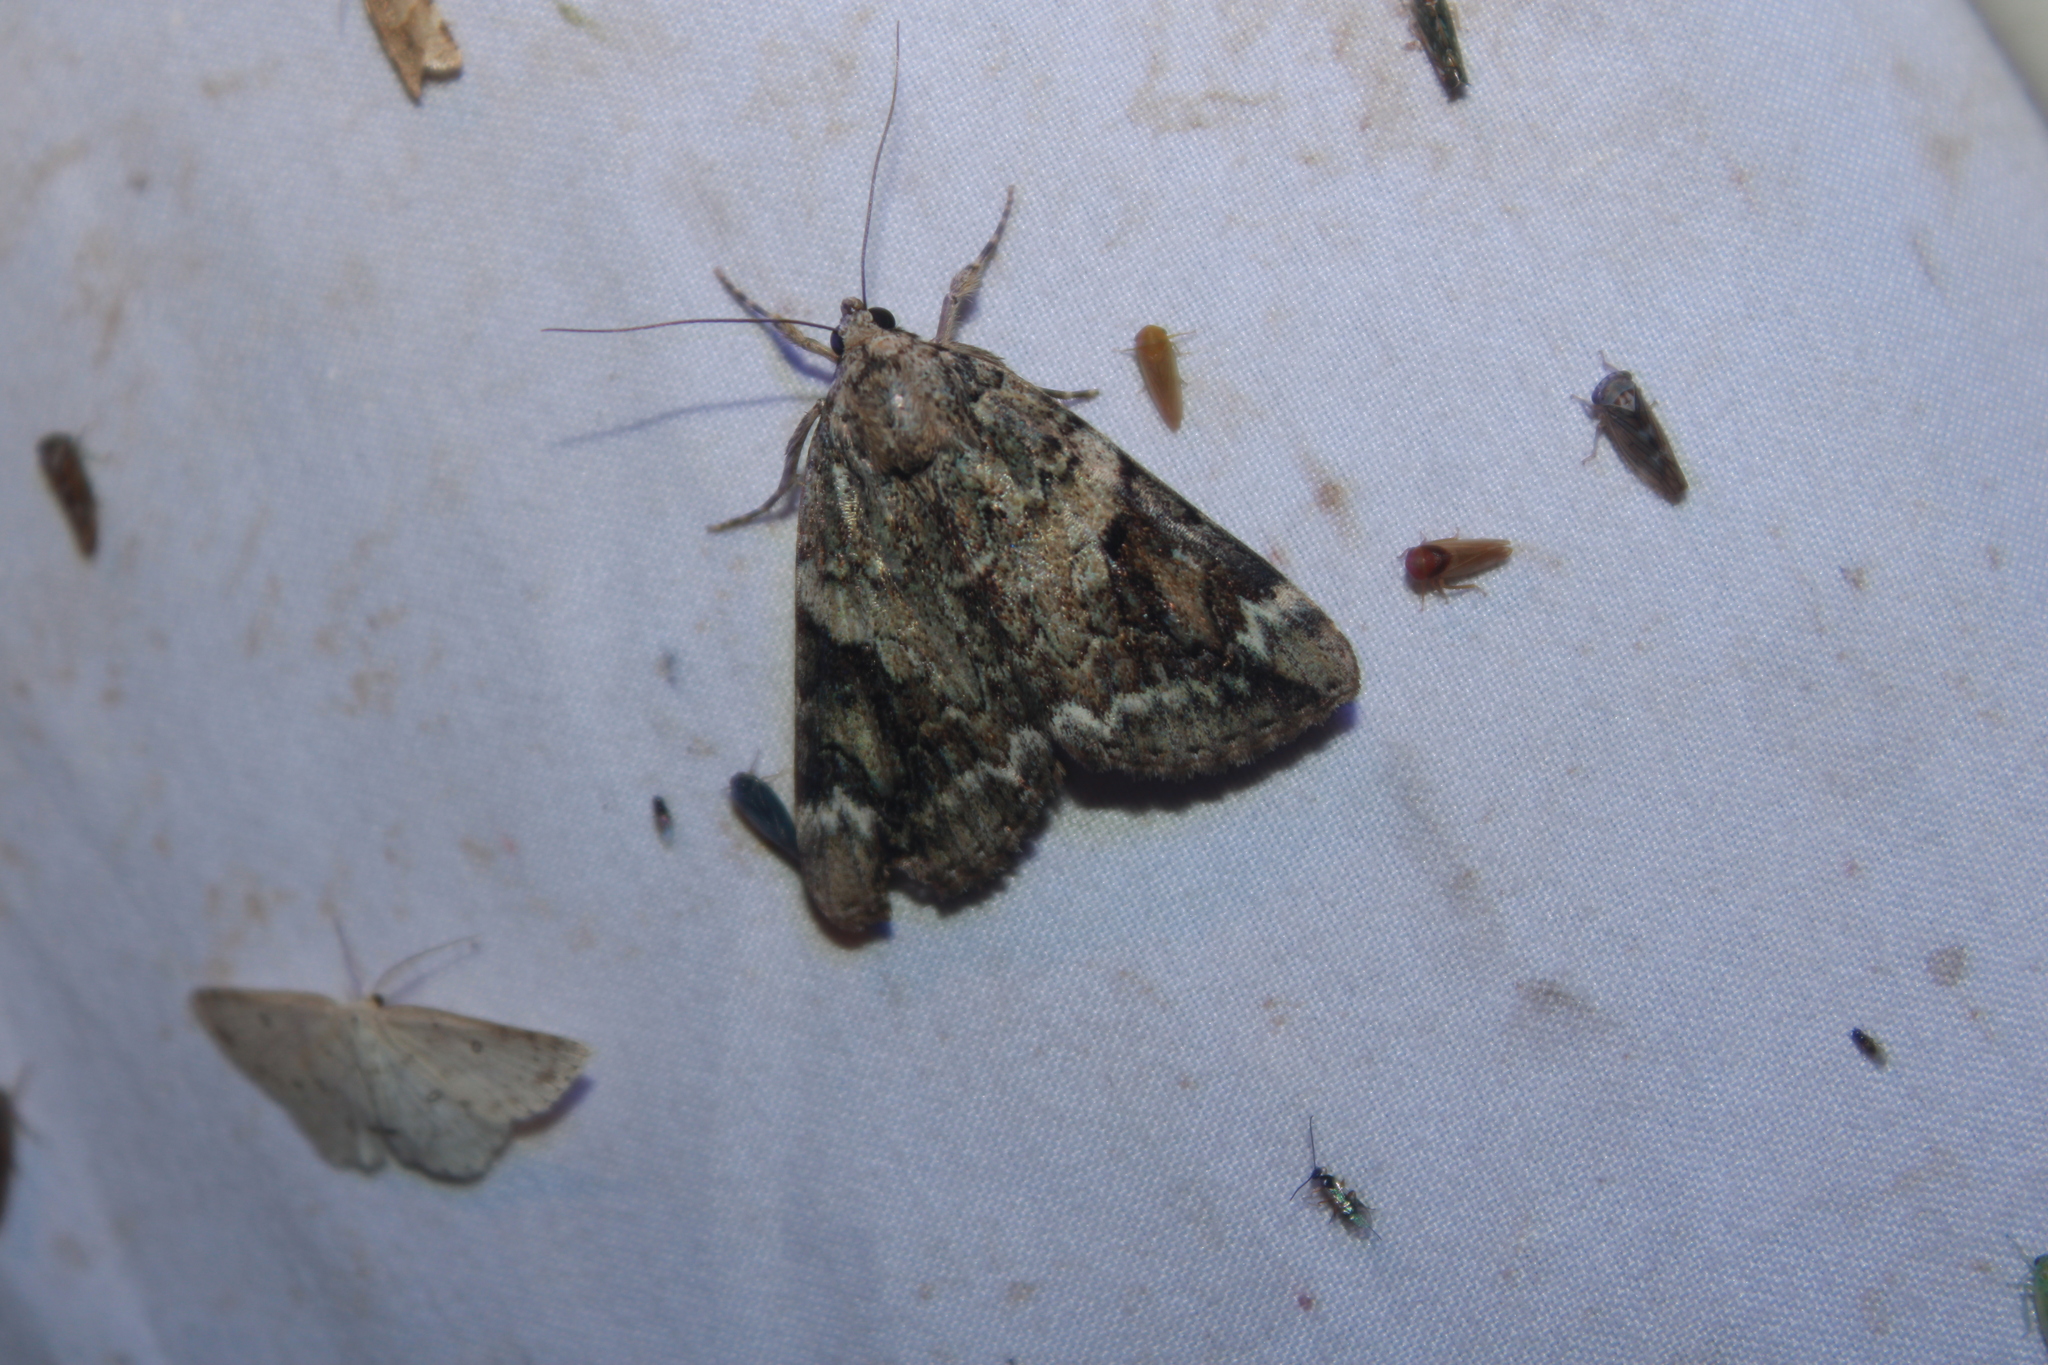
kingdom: Animalia
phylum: Arthropoda
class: Insecta
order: Lepidoptera
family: Erebidae
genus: Catocala
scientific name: Catocala micronympha
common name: Little nymph underwing
